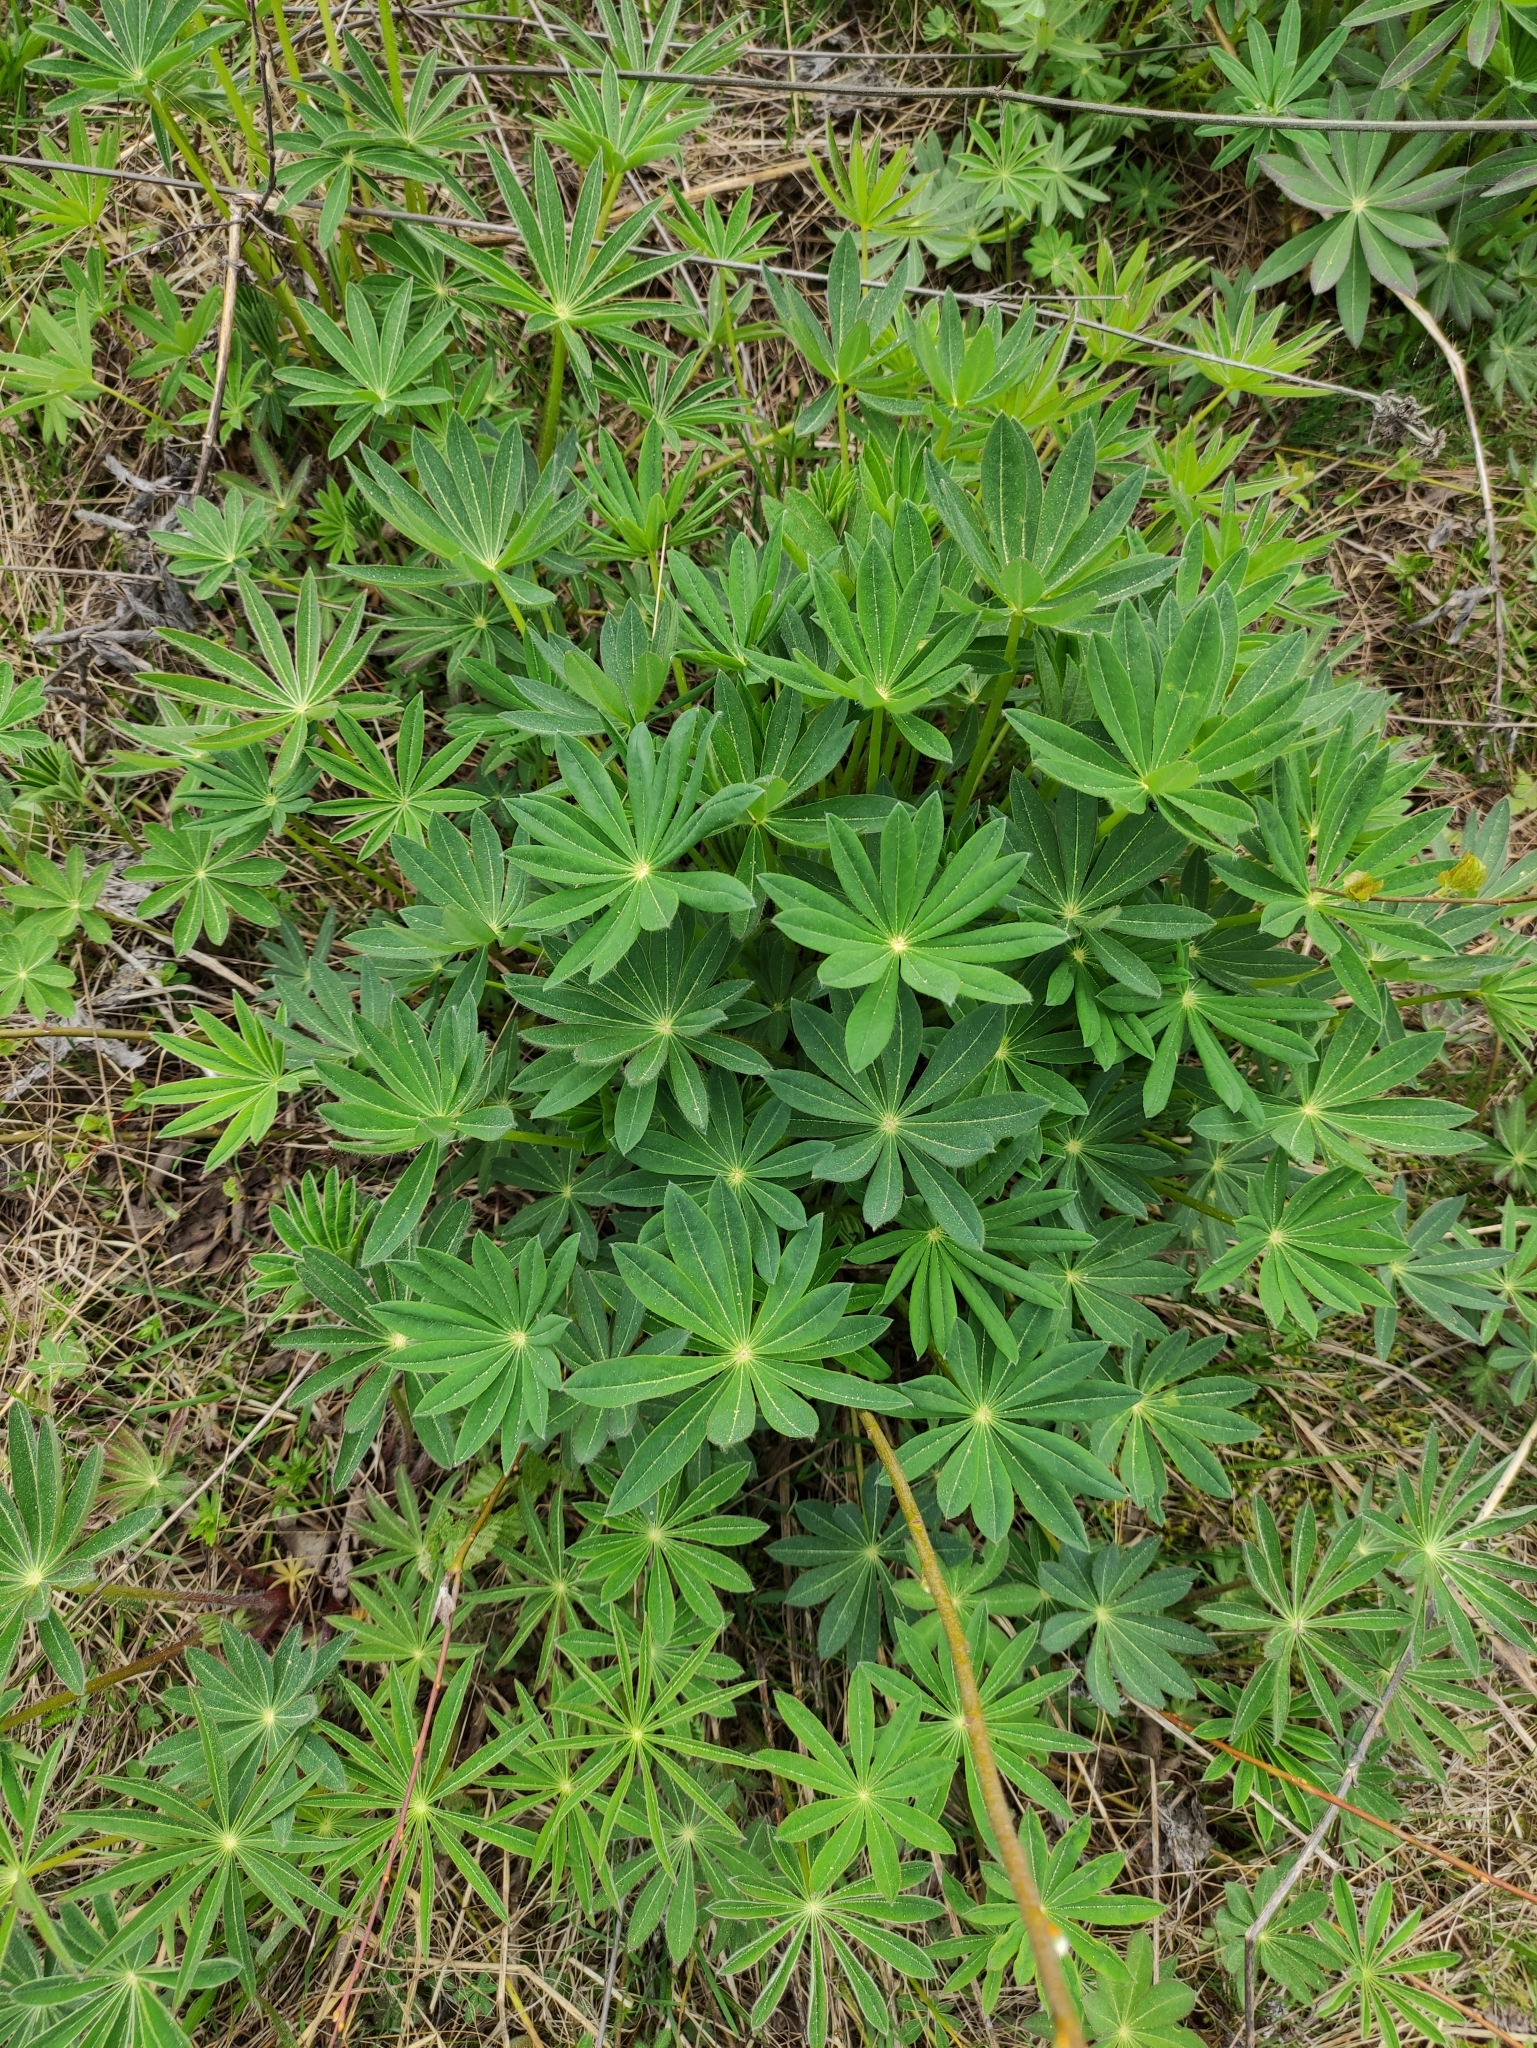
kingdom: Plantae
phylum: Tracheophyta
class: Magnoliopsida
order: Fabales
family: Fabaceae
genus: Lupinus
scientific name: Lupinus polyphyllus
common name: Garden lupin
